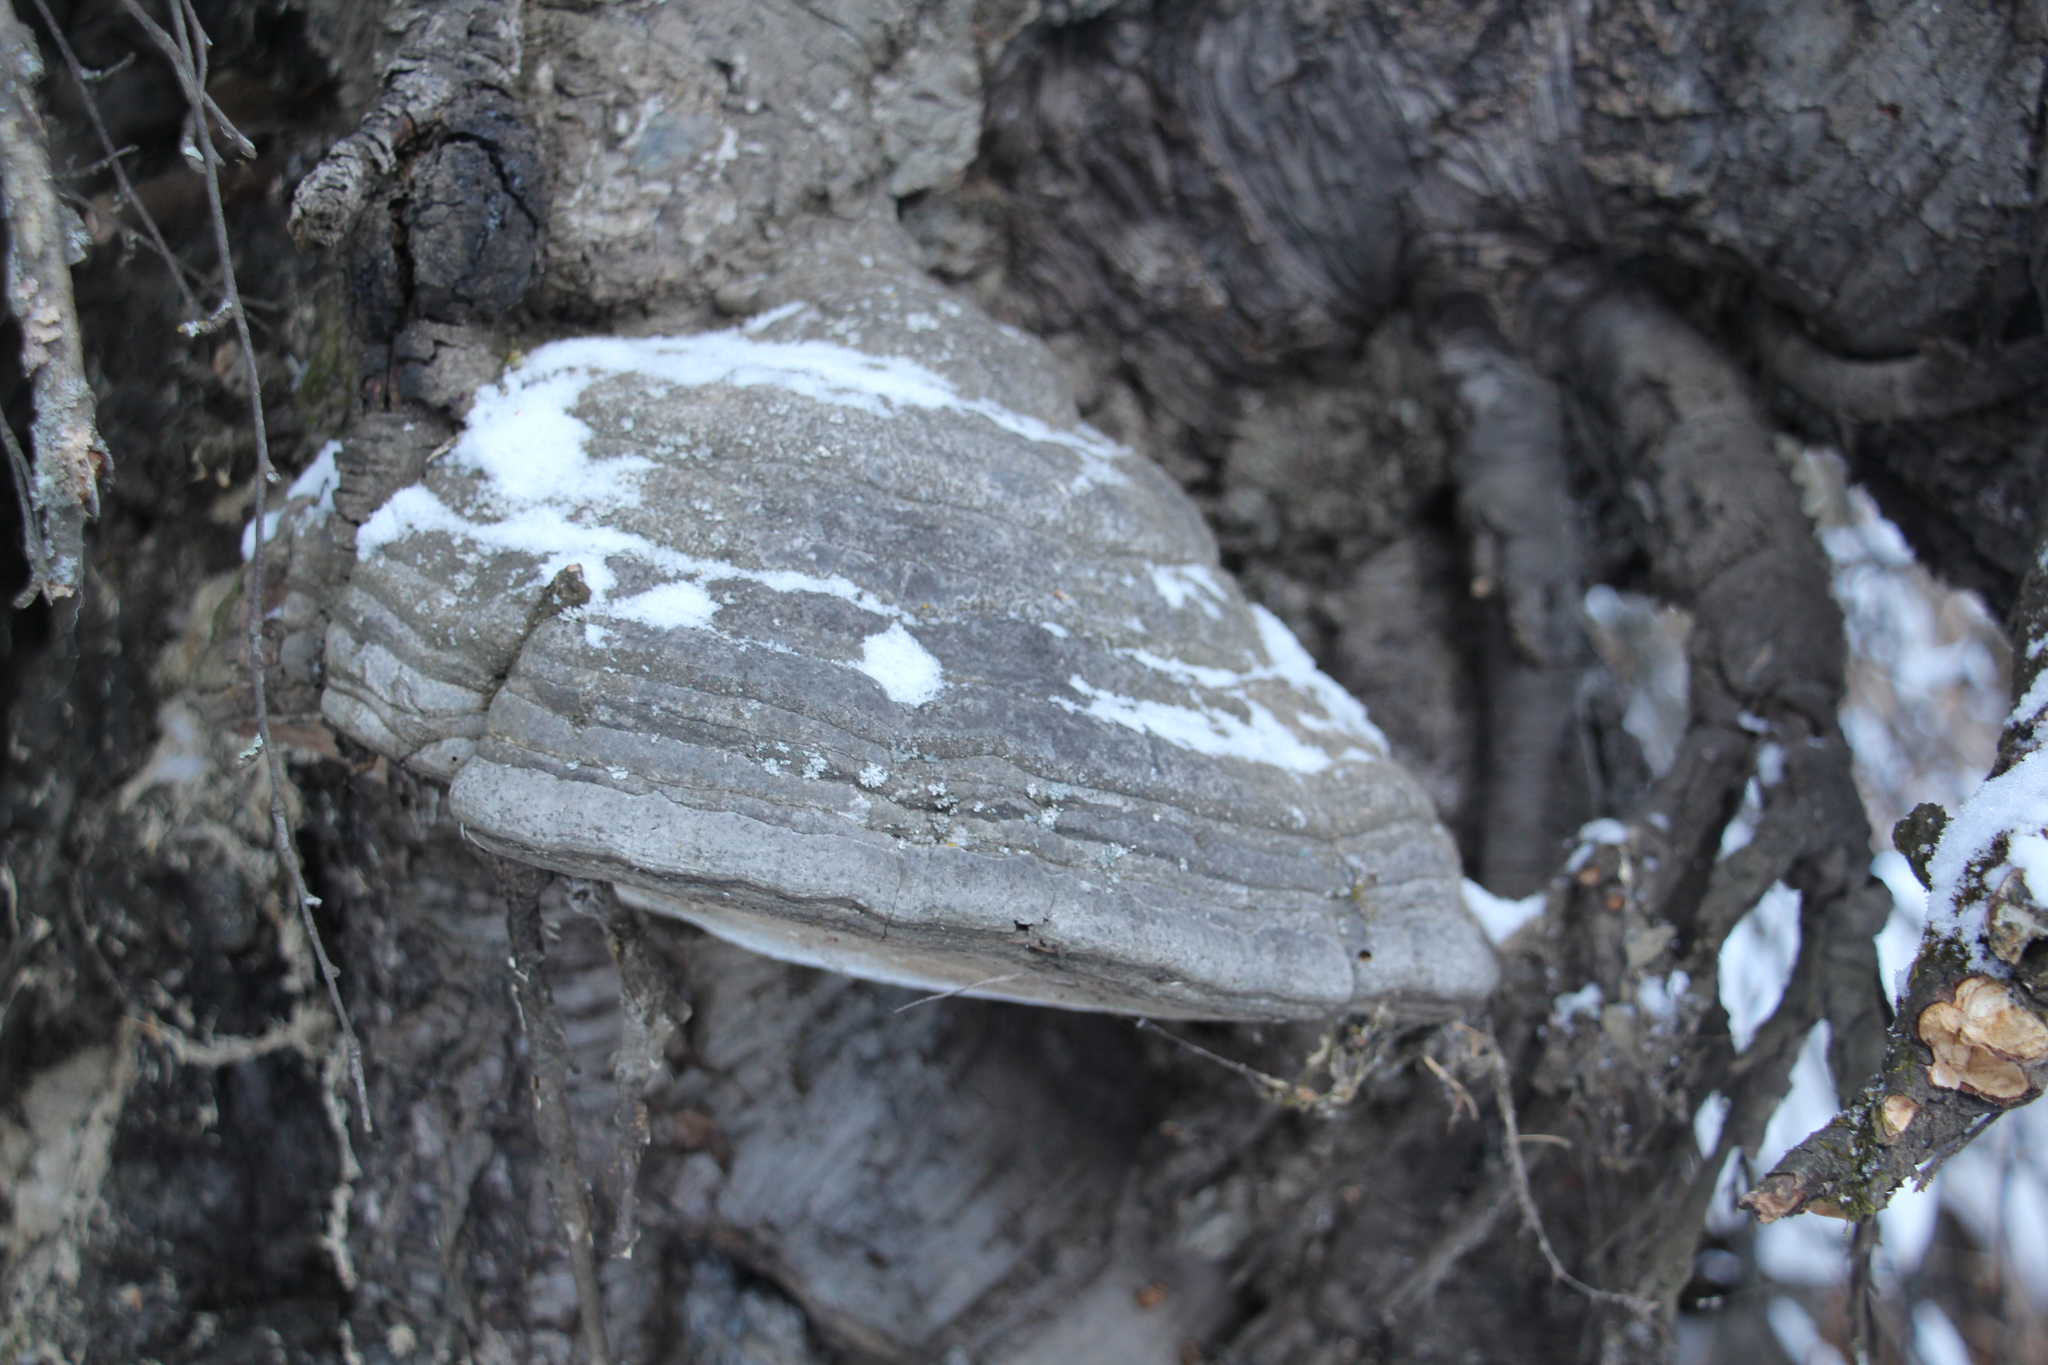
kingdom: Fungi
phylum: Basidiomycota
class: Agaricomycetes
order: Polyporales
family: Polyporaceae
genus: Fomes
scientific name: Fomes fomentarius
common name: Hoof fungus
